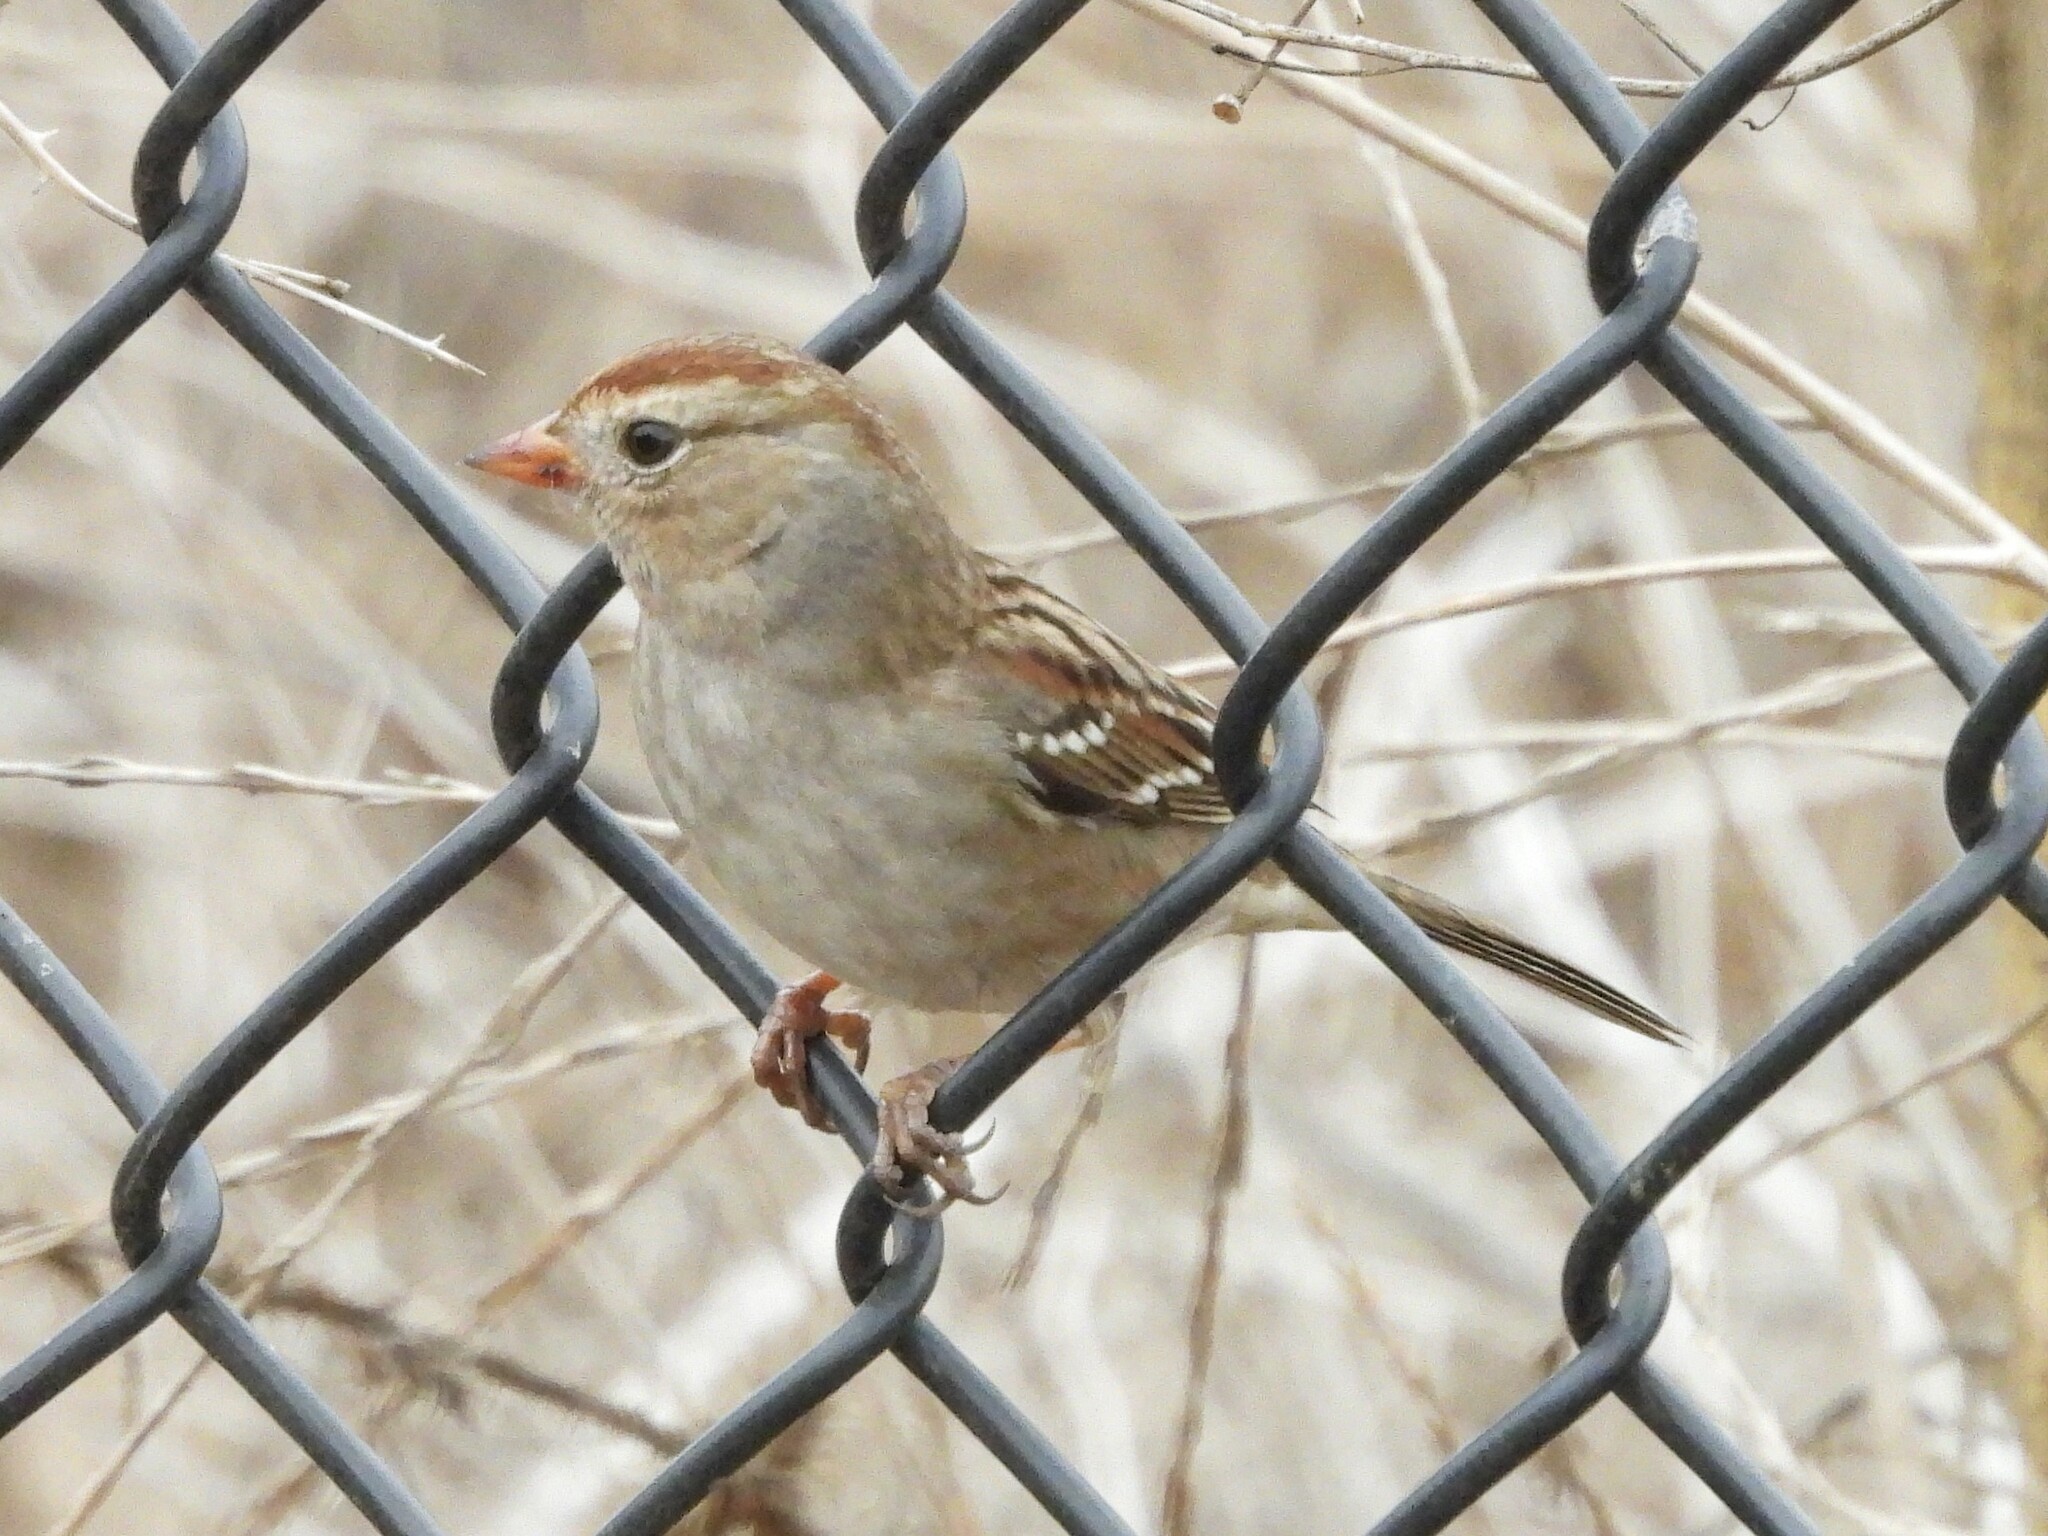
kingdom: Animalia
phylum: Chordata
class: Aves
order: Passeriformes
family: Passerellidae
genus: Zonotrichia
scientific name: Zonotrichia leucophrys
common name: White-crowned sparrow
